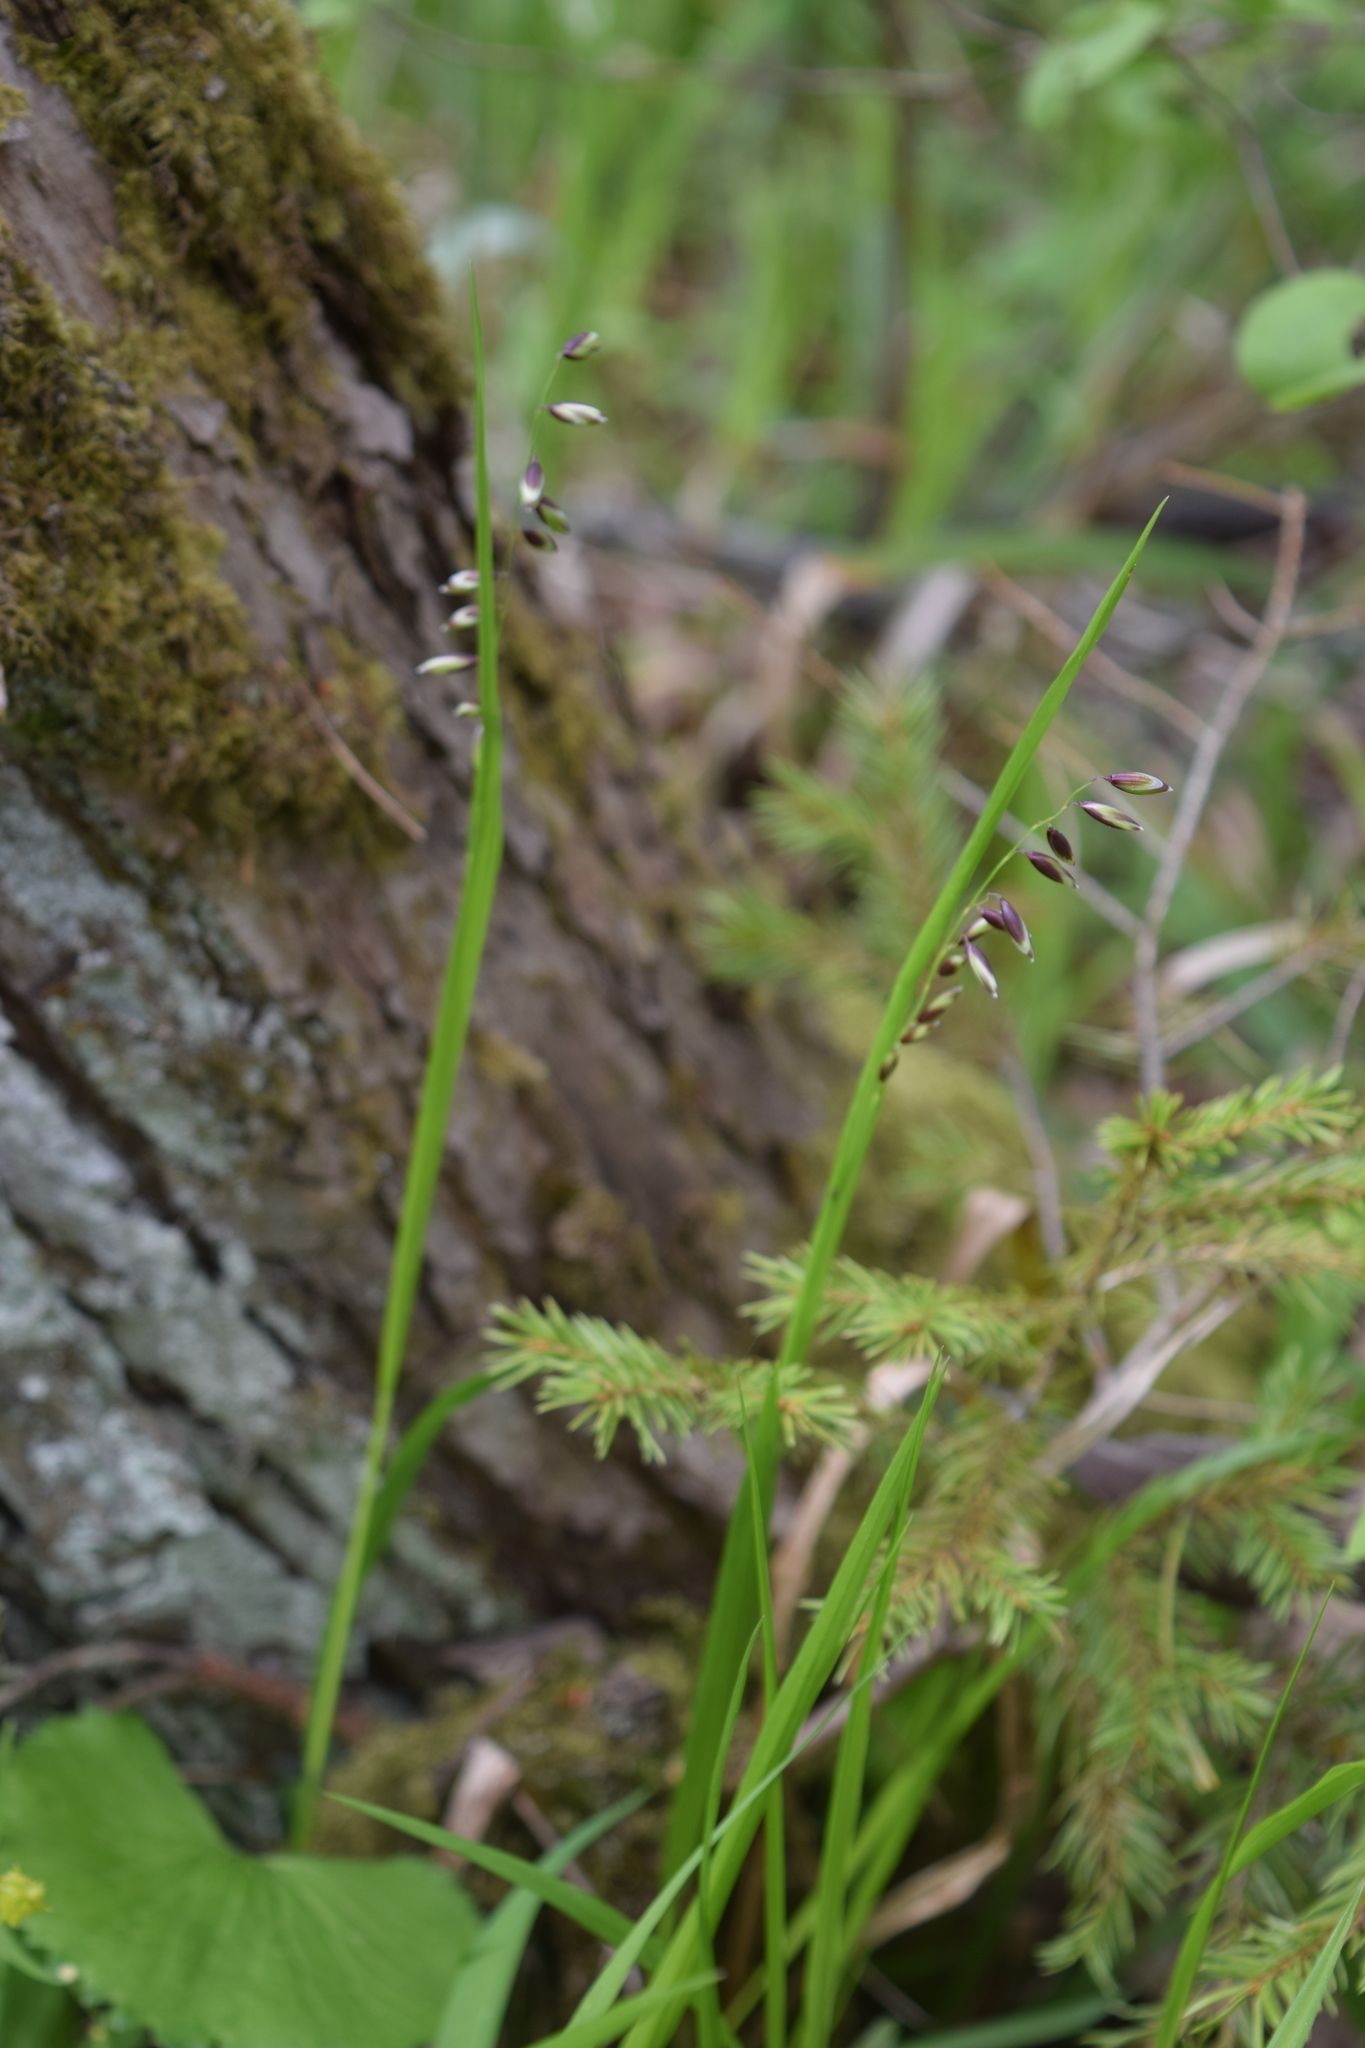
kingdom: Plantae
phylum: Tracheophyta
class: Liliopsida
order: Poales
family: Poaceae
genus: Melica
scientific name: Melica nutans
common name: Mountain melick
